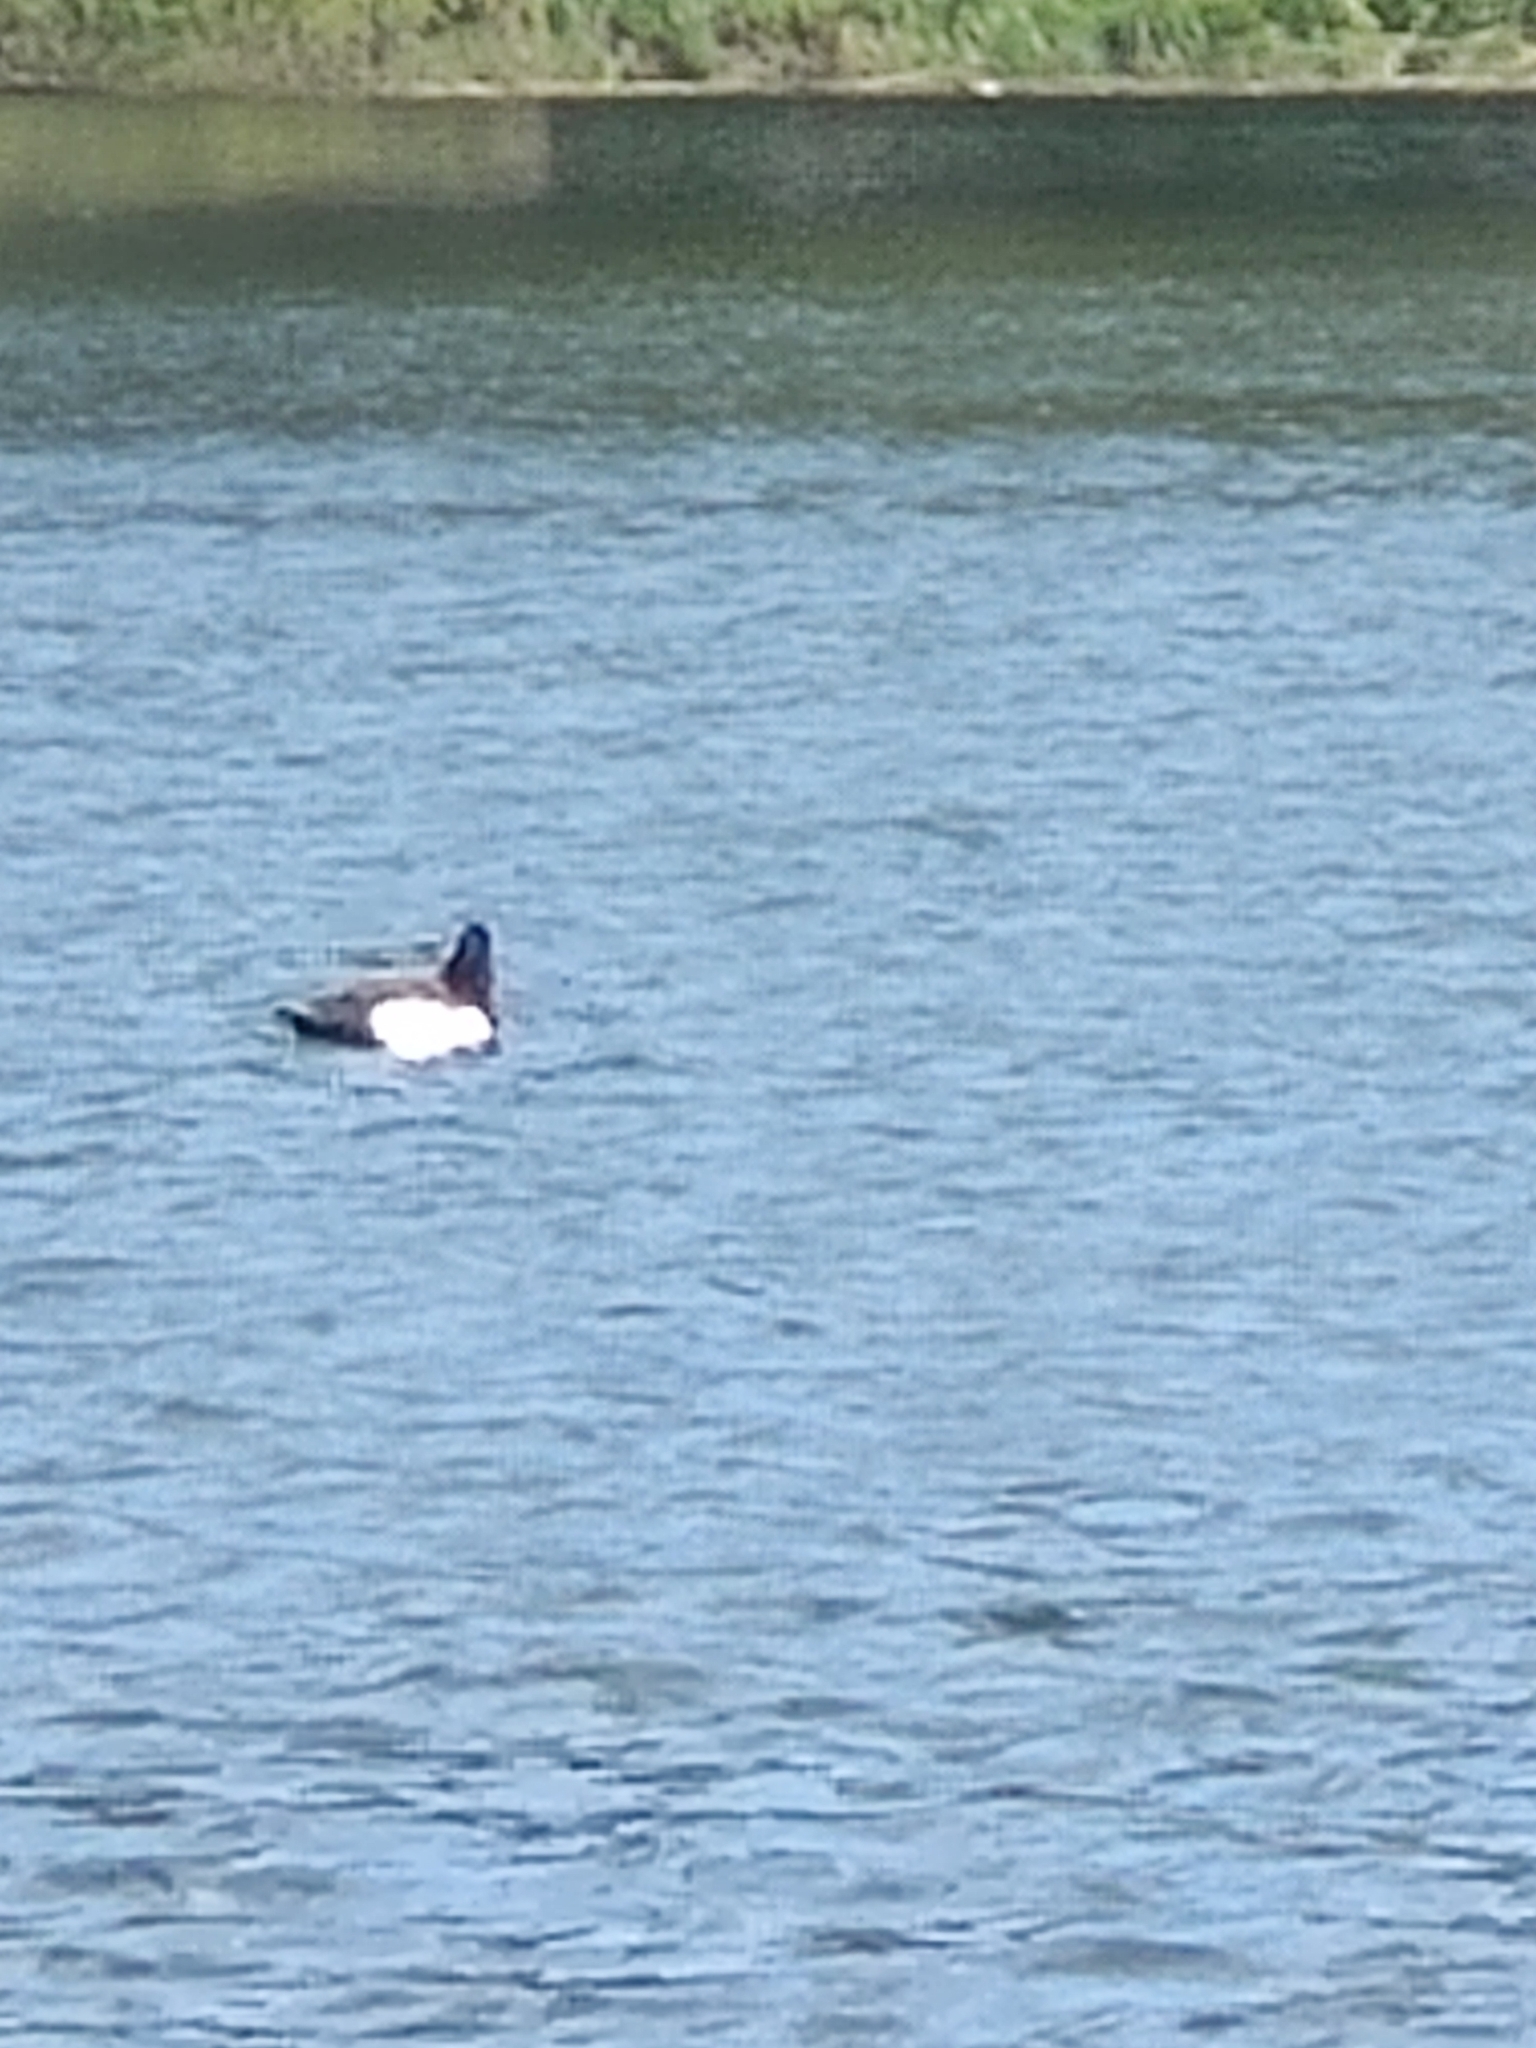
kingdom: Animalia
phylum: Chordata
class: Aves
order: Anseriformes
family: Anatidae
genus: Aythya
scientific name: Aythya fuligula
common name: Tufted duck
